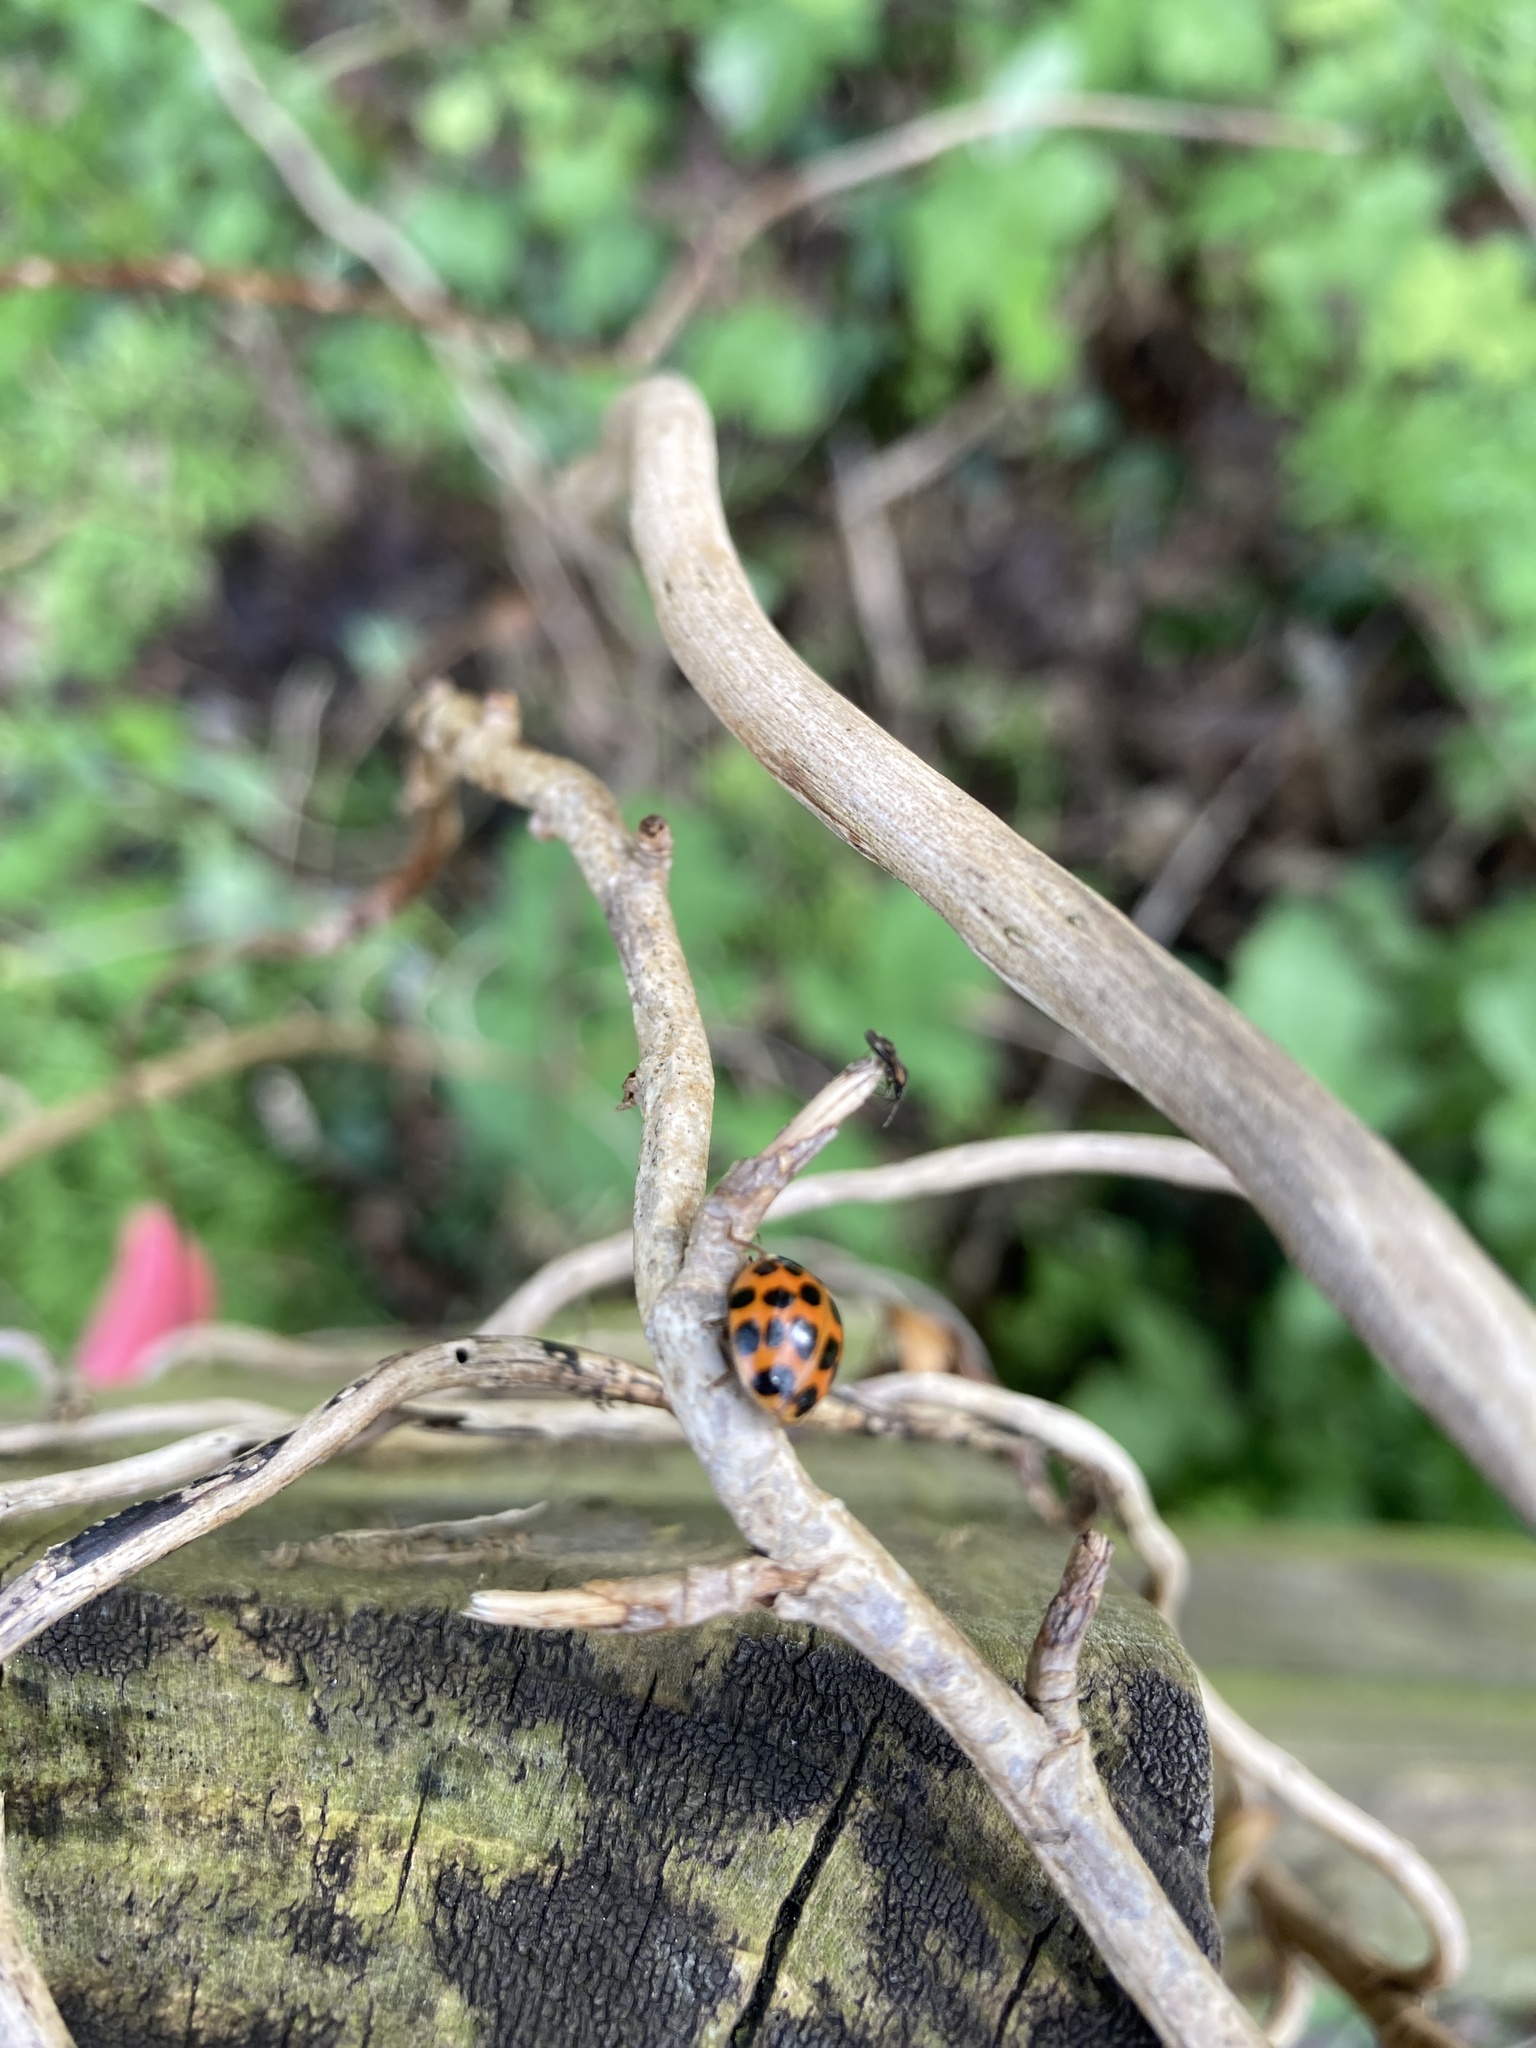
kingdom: Animalia
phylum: Arthropoda
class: Insecta
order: Coleoptera
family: Coccinellidae
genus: Harmonia
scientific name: Harmonia axyridis
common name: Harlequin ladybird
